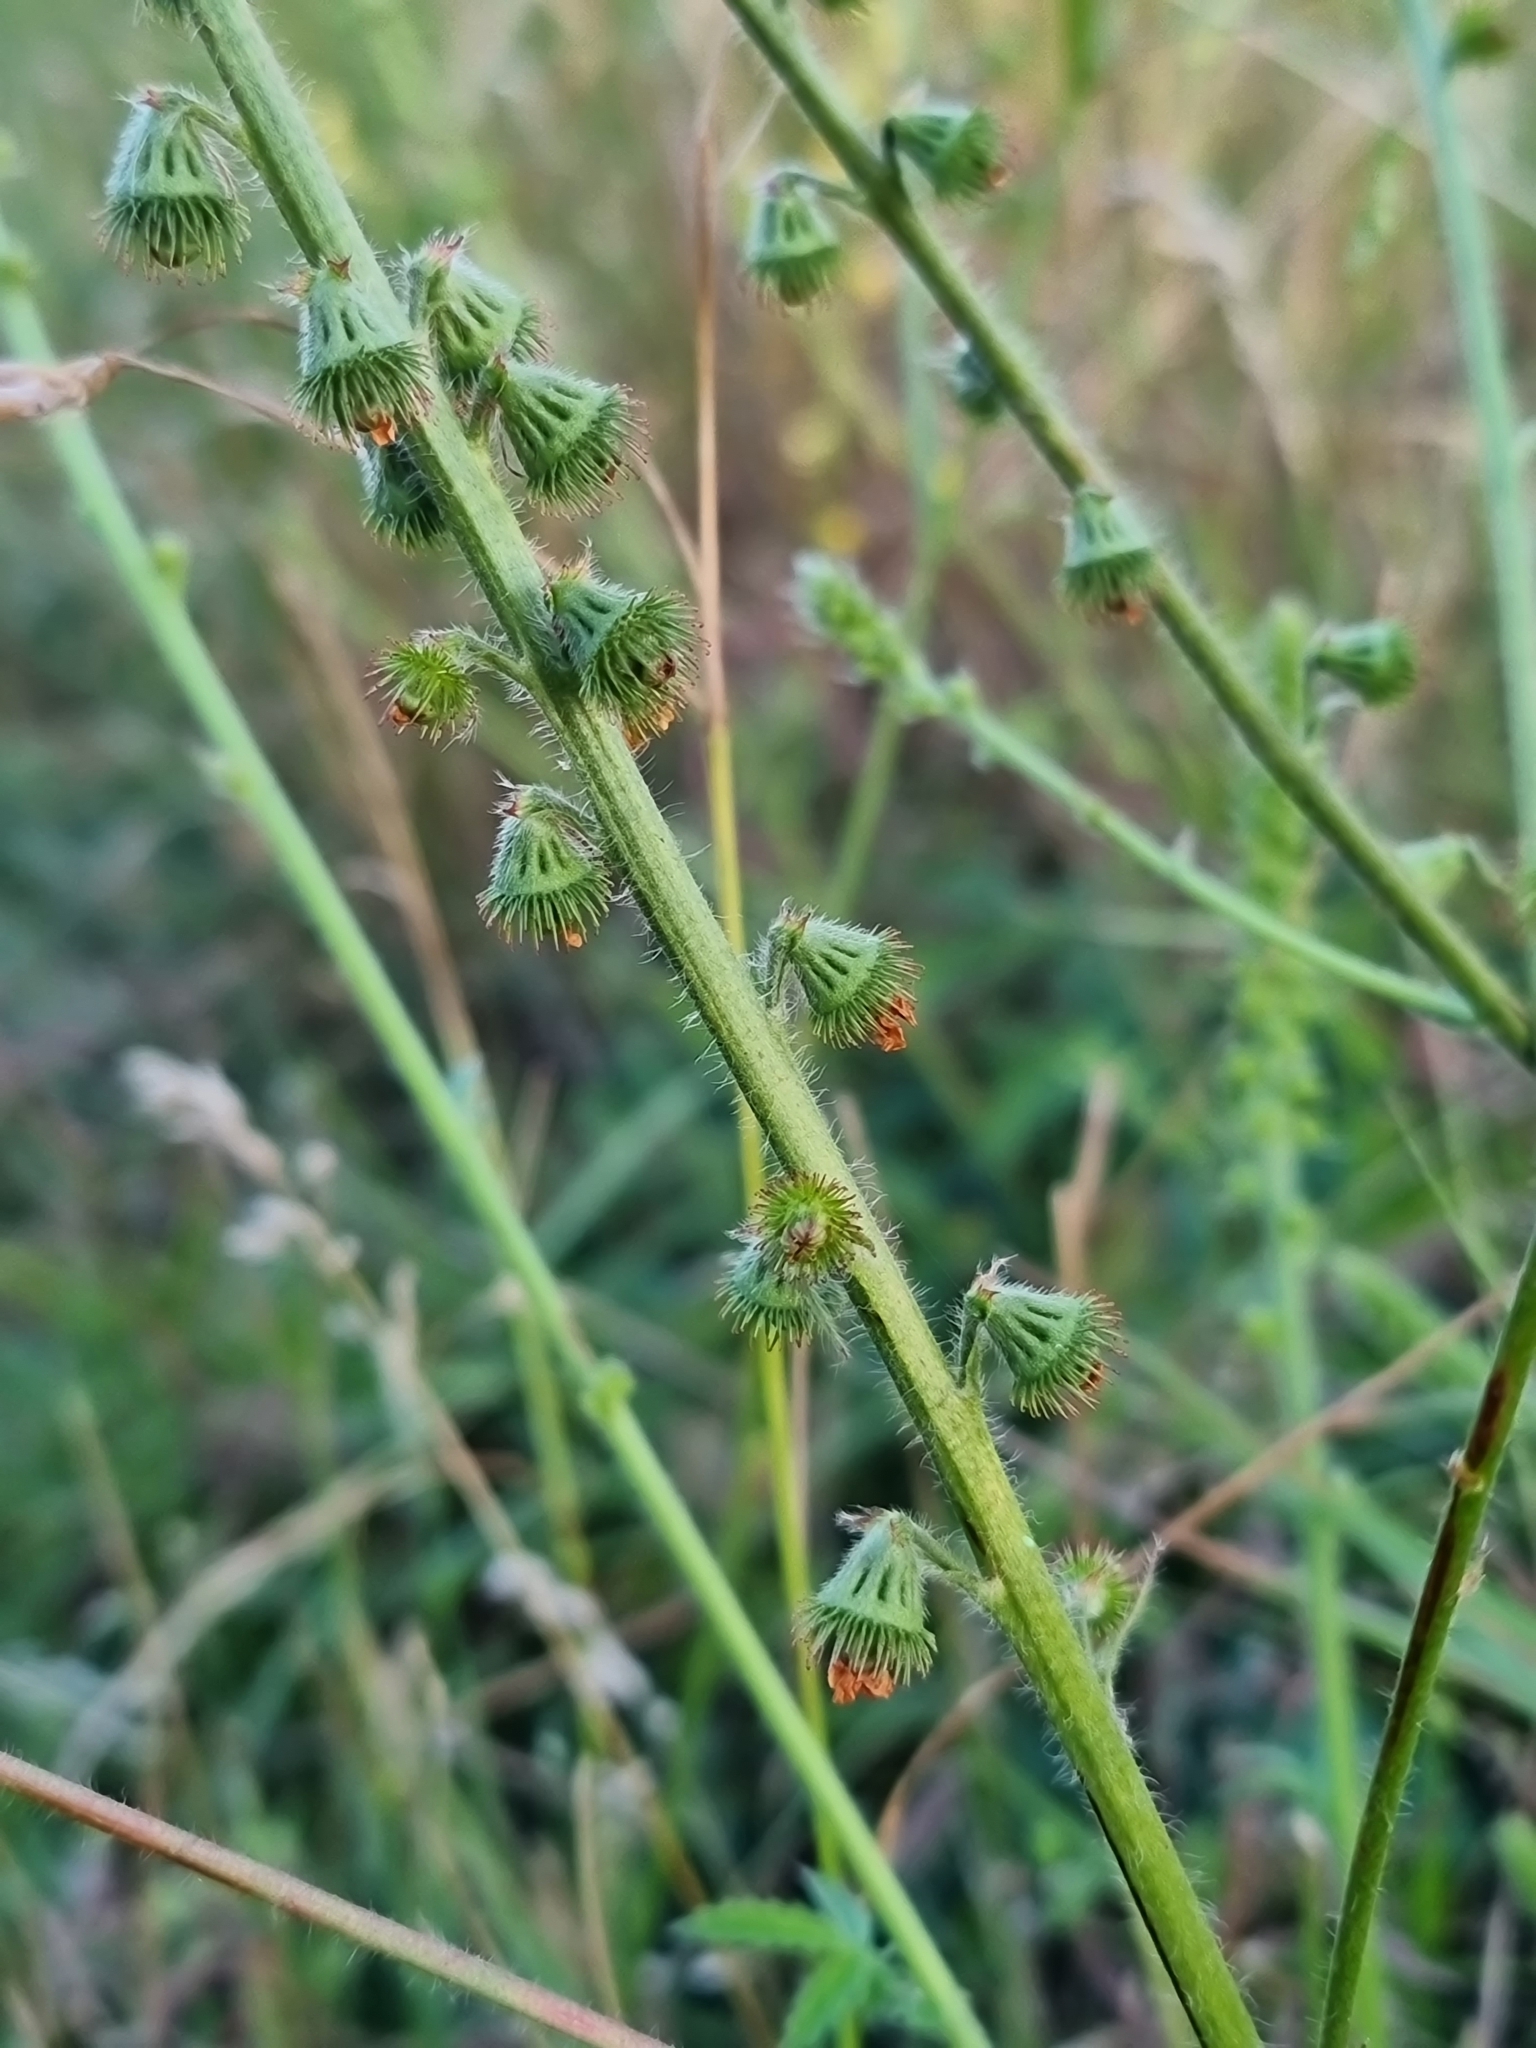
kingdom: Plantae
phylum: Tracheophyta
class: Magnoliopsida
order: Rosales
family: Rosaceae
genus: Agrimonia
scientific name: Agrimonia eupatoria
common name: Agrimony
